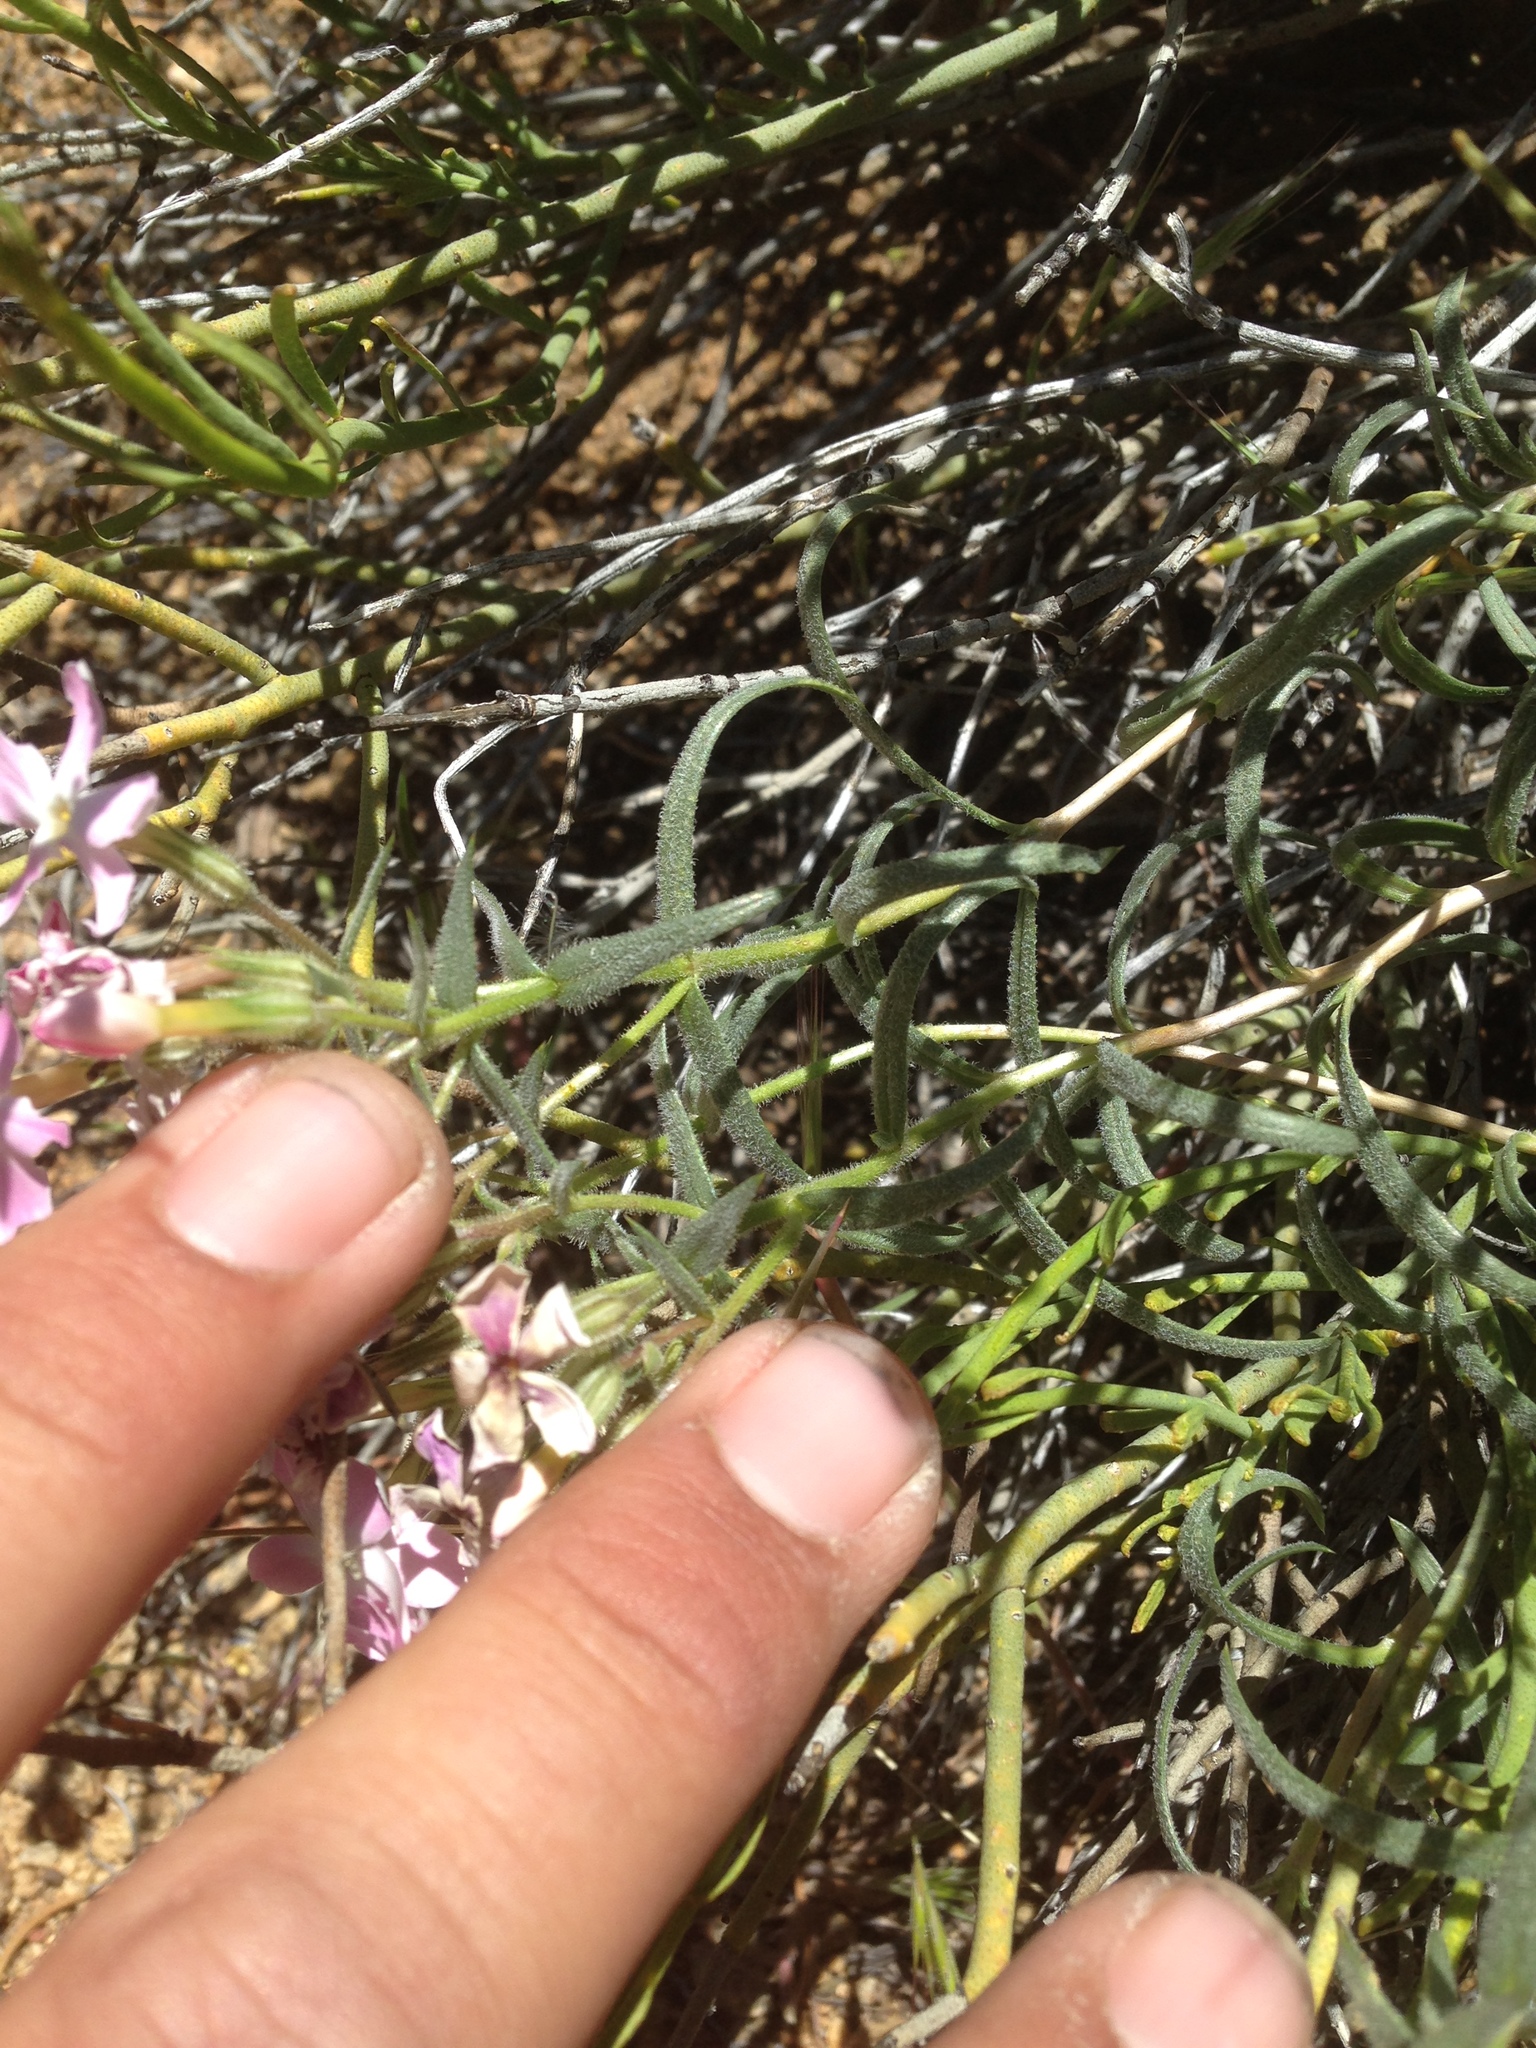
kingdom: Plantae
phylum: Tracheophyta
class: Magnoliopsida
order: Ericales
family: Polemoniaceae
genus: Phlox
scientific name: Phlox longifolia
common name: Longleaf phlox
